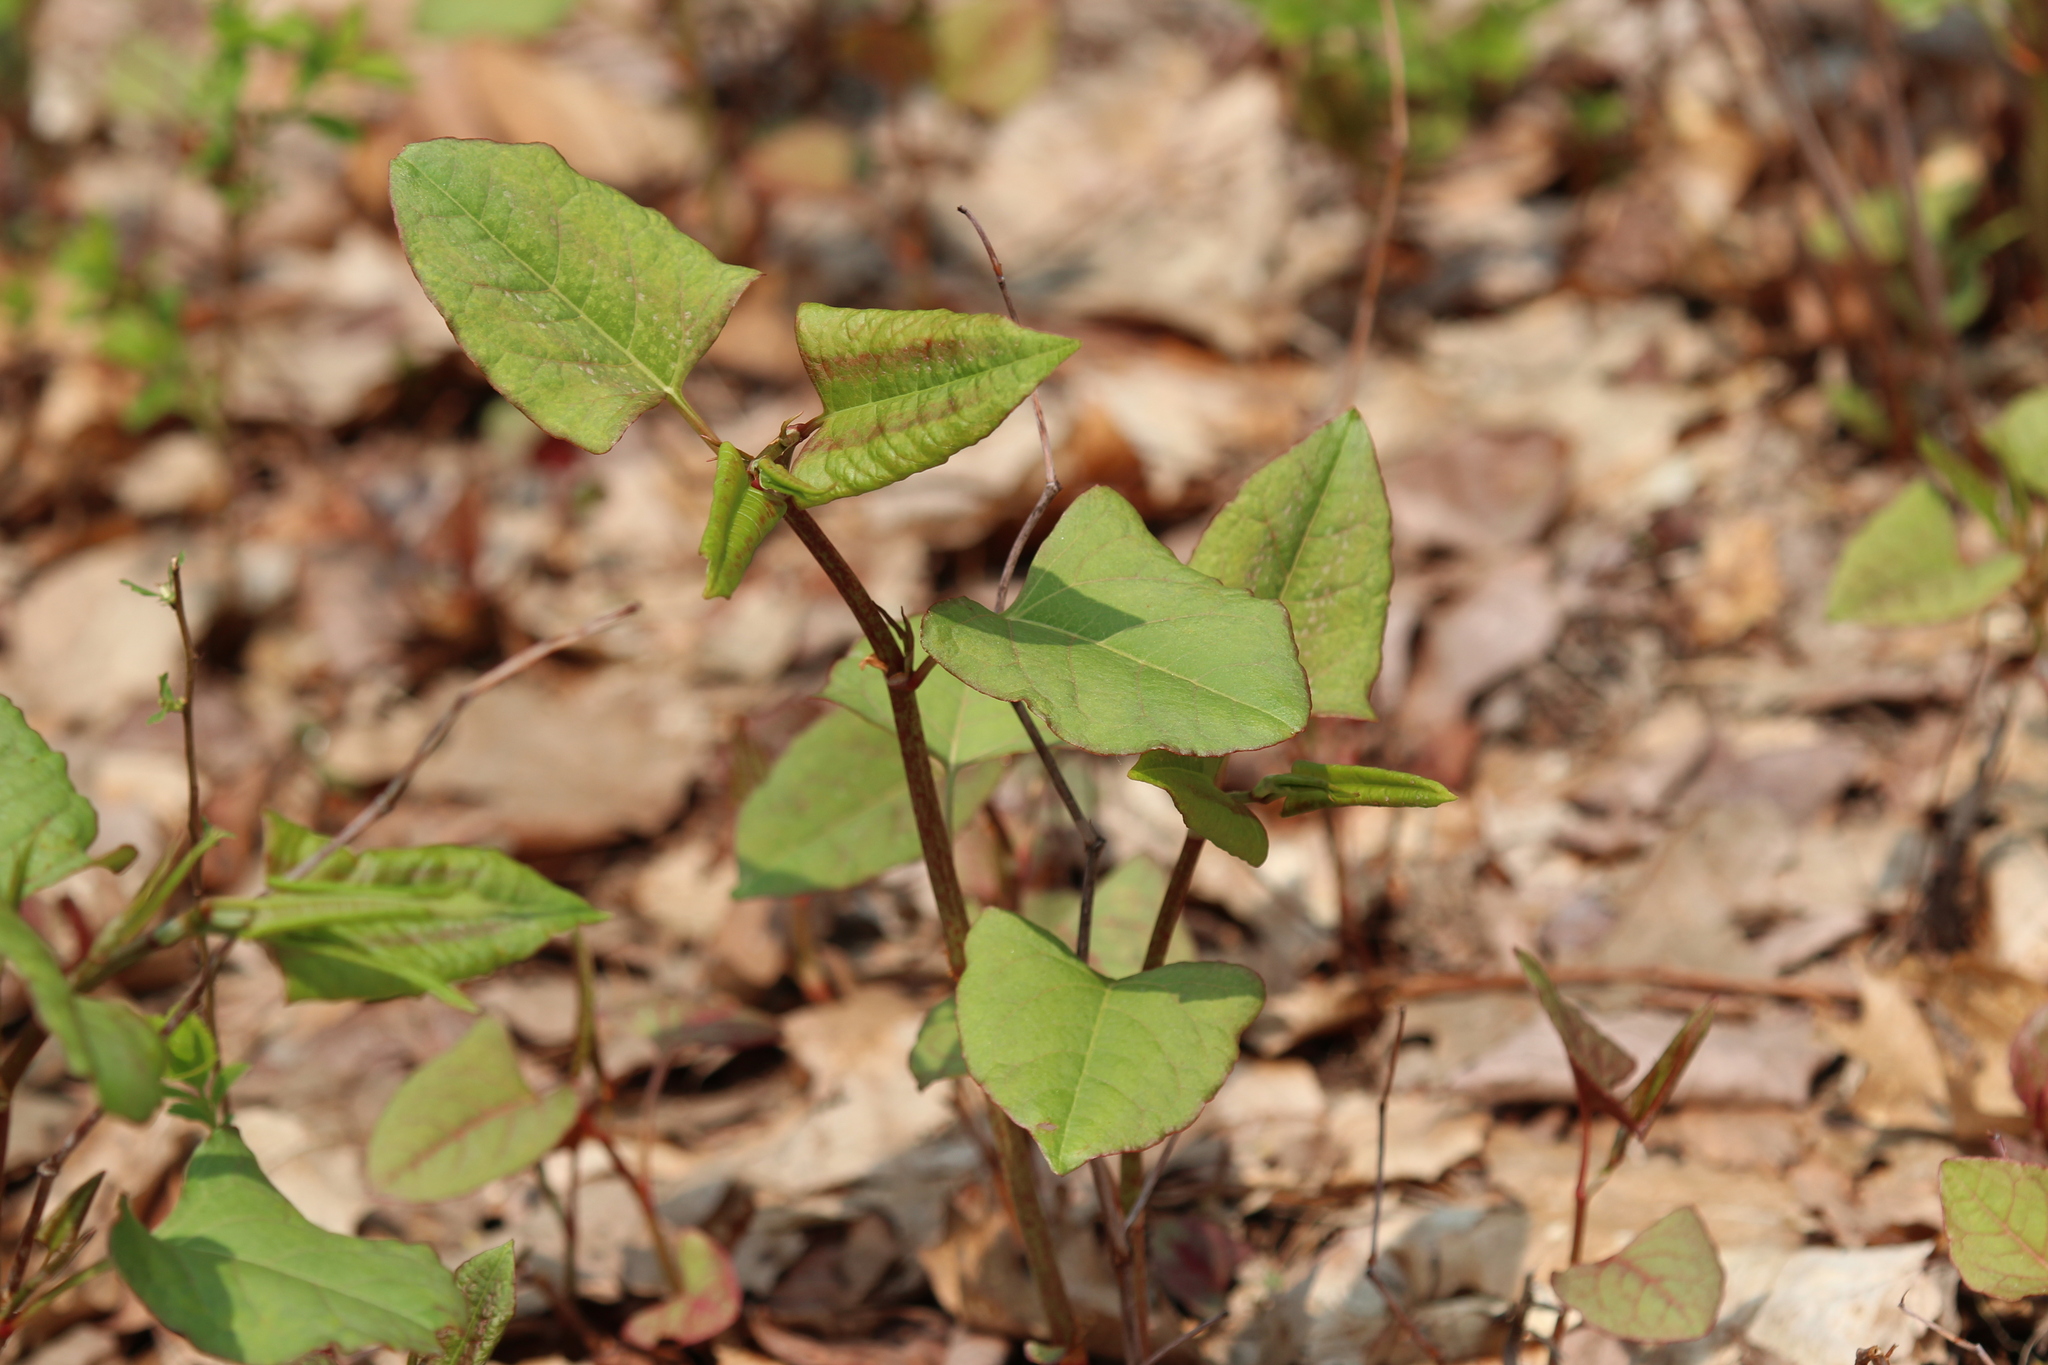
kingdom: Plantae
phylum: Tracheophyta
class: Magnoliopsida
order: Caryophyllales
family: Polygonaceae
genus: Reynoutria
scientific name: Reynoutria japonica
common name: Japanese knotweed
